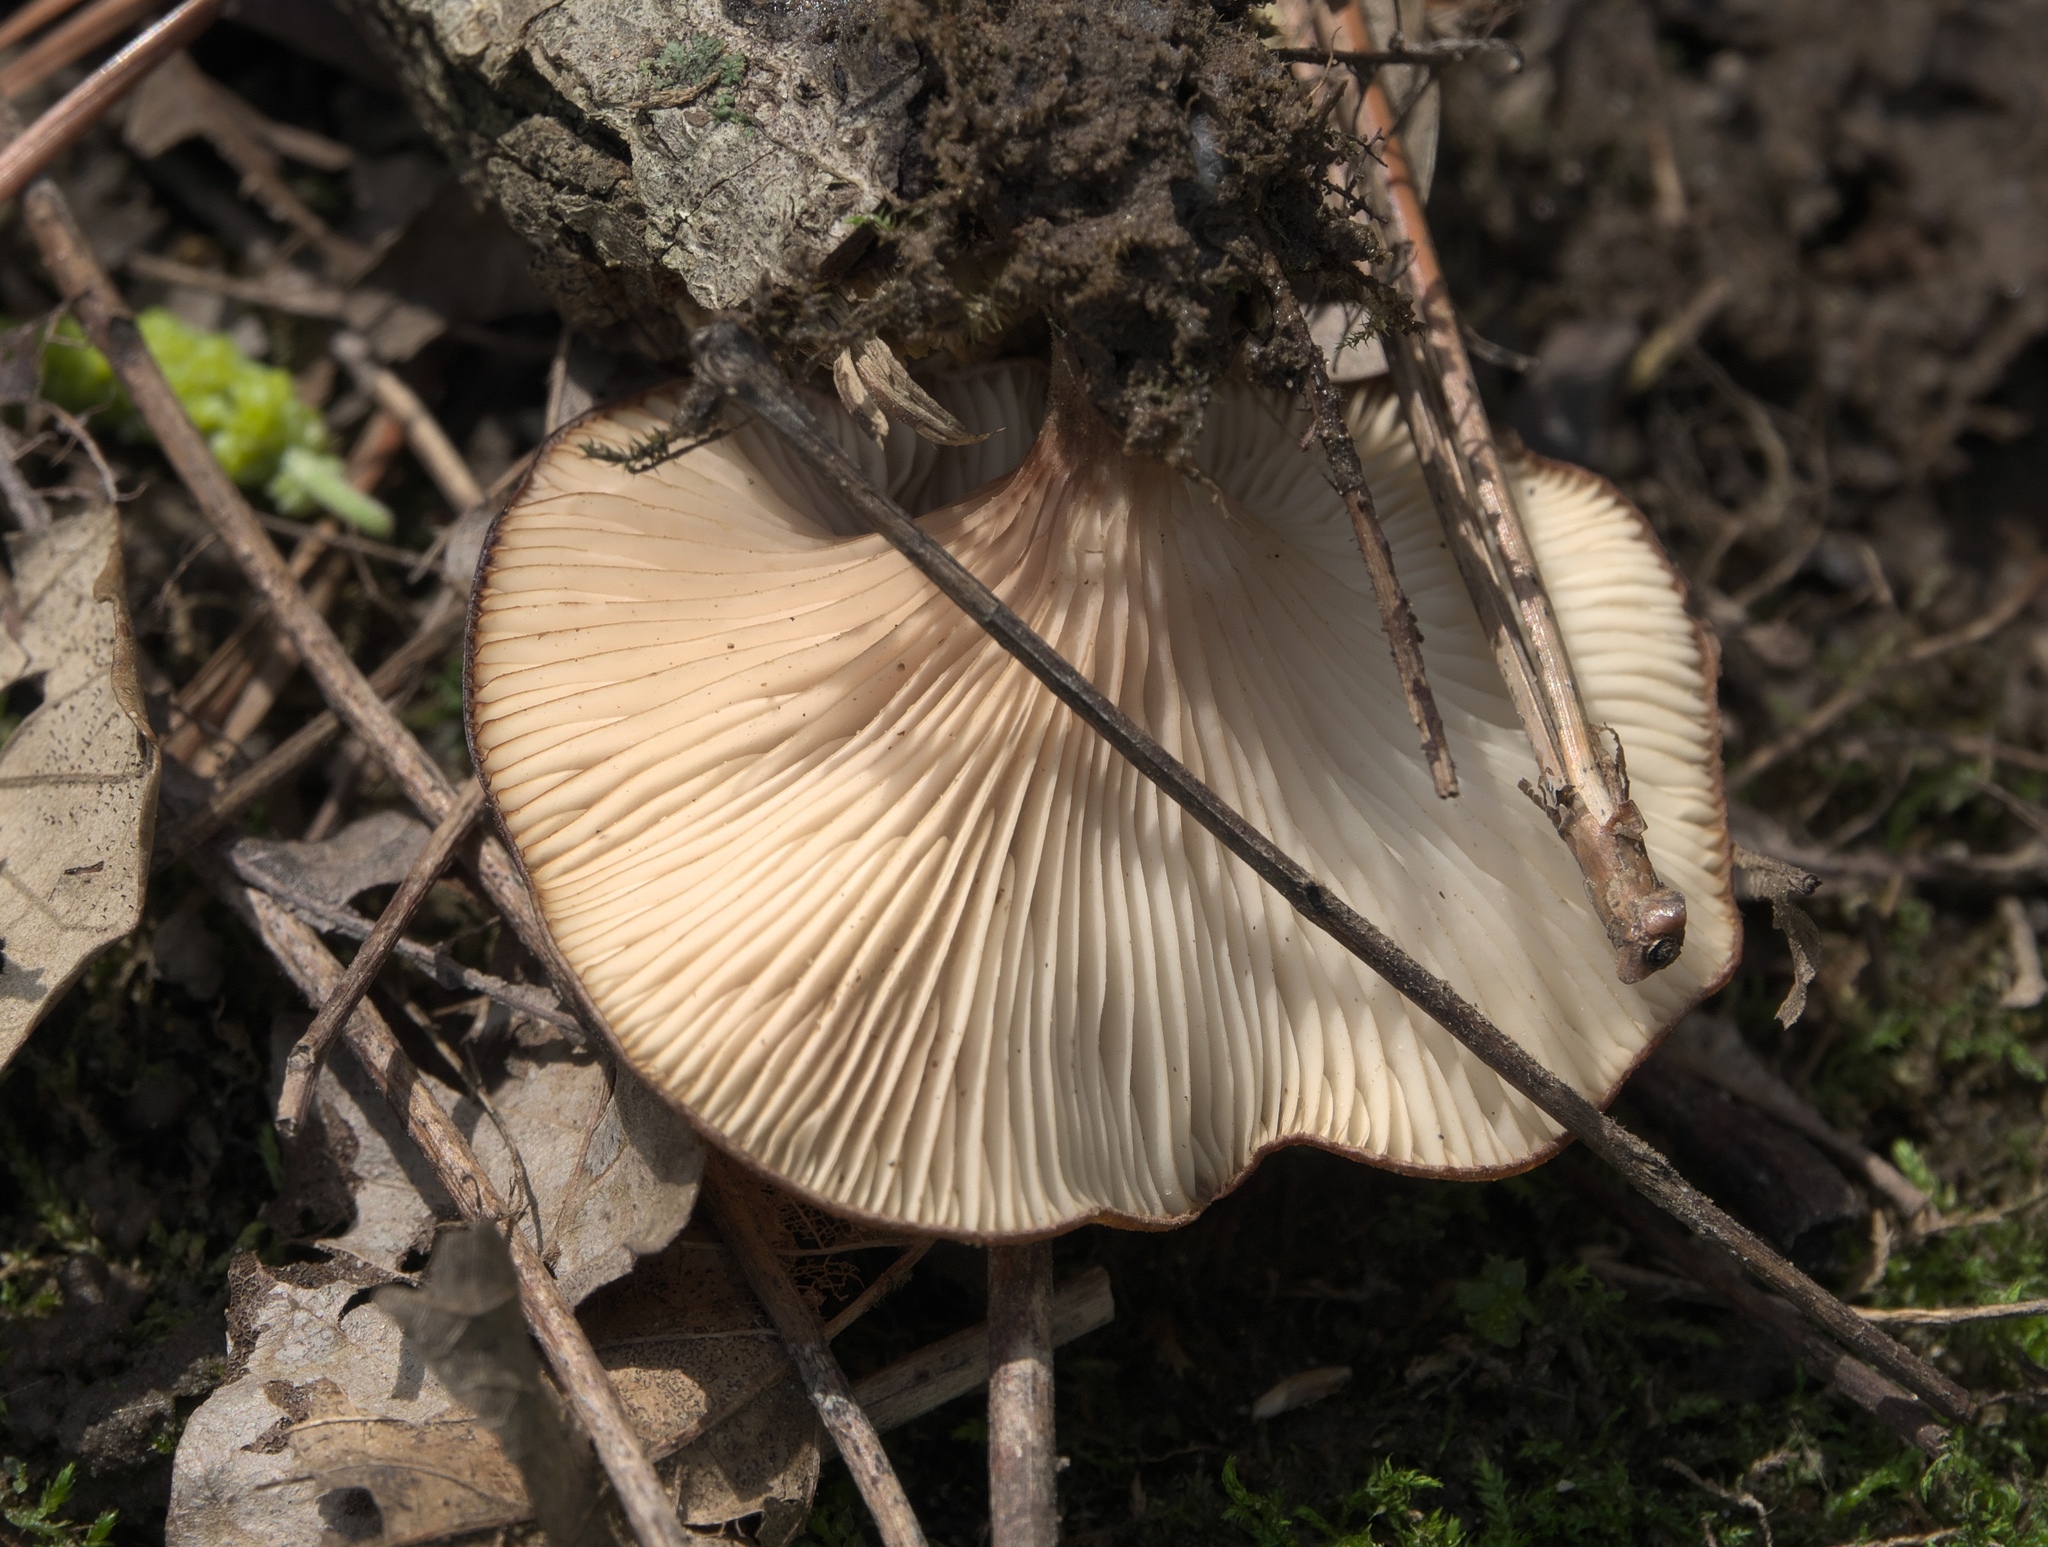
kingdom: Fungi
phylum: Basidiomycota
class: Agaricomycetes
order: Agaricales
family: Pleurotaceae
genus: Pleurotus
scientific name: Pleurotus ostreatus
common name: Oyster mushroom
